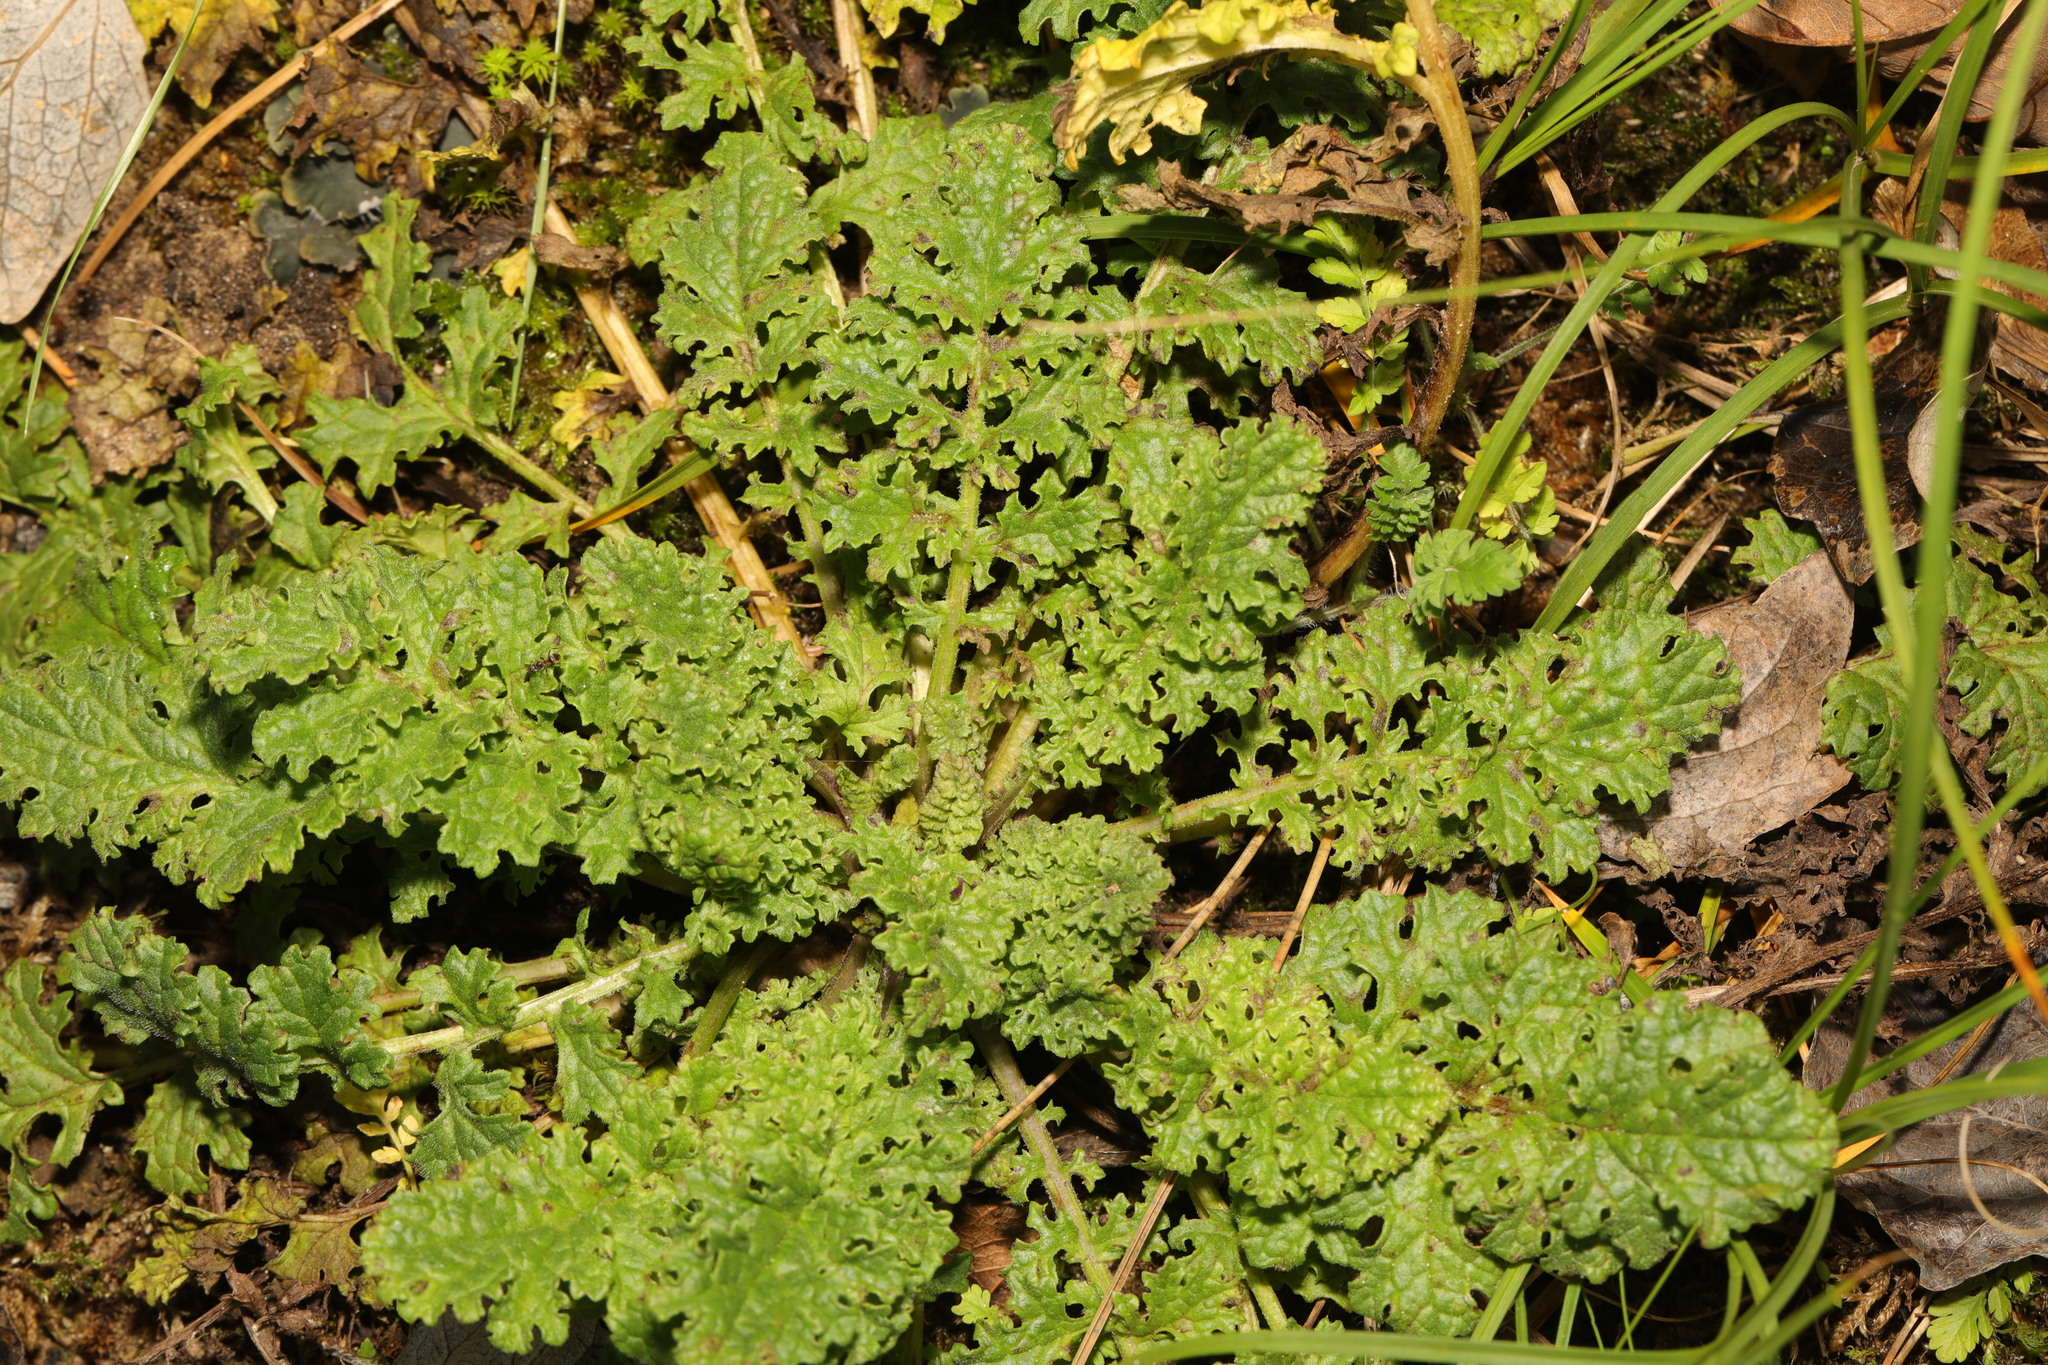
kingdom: Plantae
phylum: Tracheophyta
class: Magnoliopsida
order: Asterales
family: Asteraceae
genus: Jacobaea
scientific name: Jacobaea vulgaris
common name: Stinking willie
